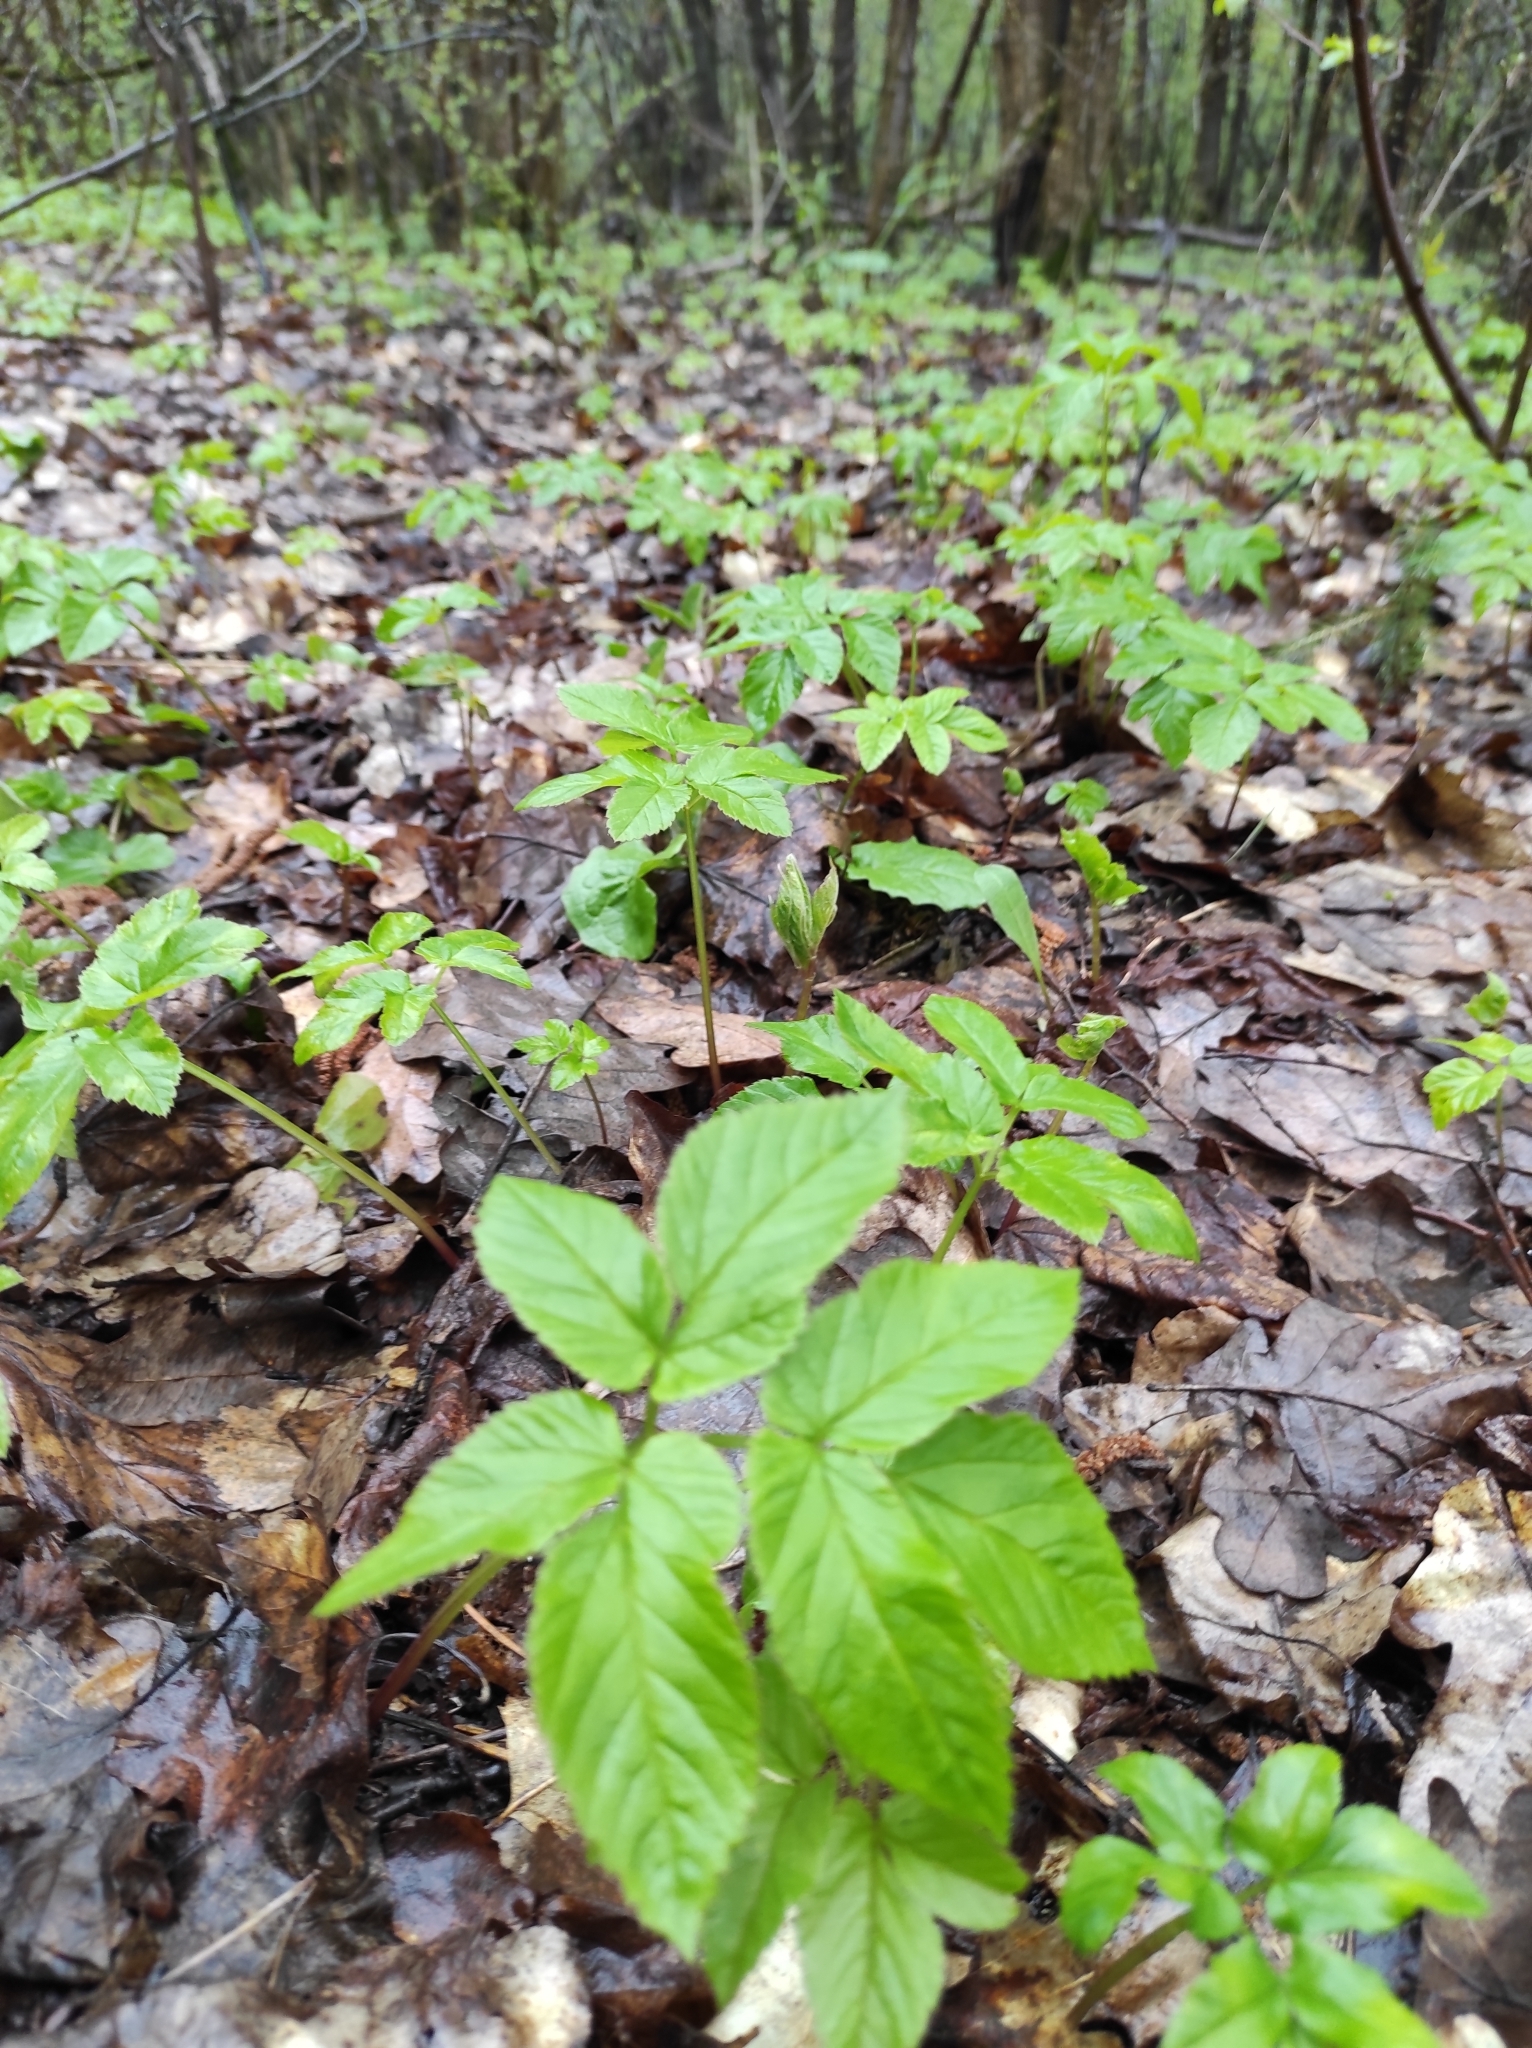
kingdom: Plantae
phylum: Tracheophyta
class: Magnoliopsida
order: Apiales
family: Apiaceae
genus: Aegopodium
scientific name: Aegopodium podagraria
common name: Ground-elder
